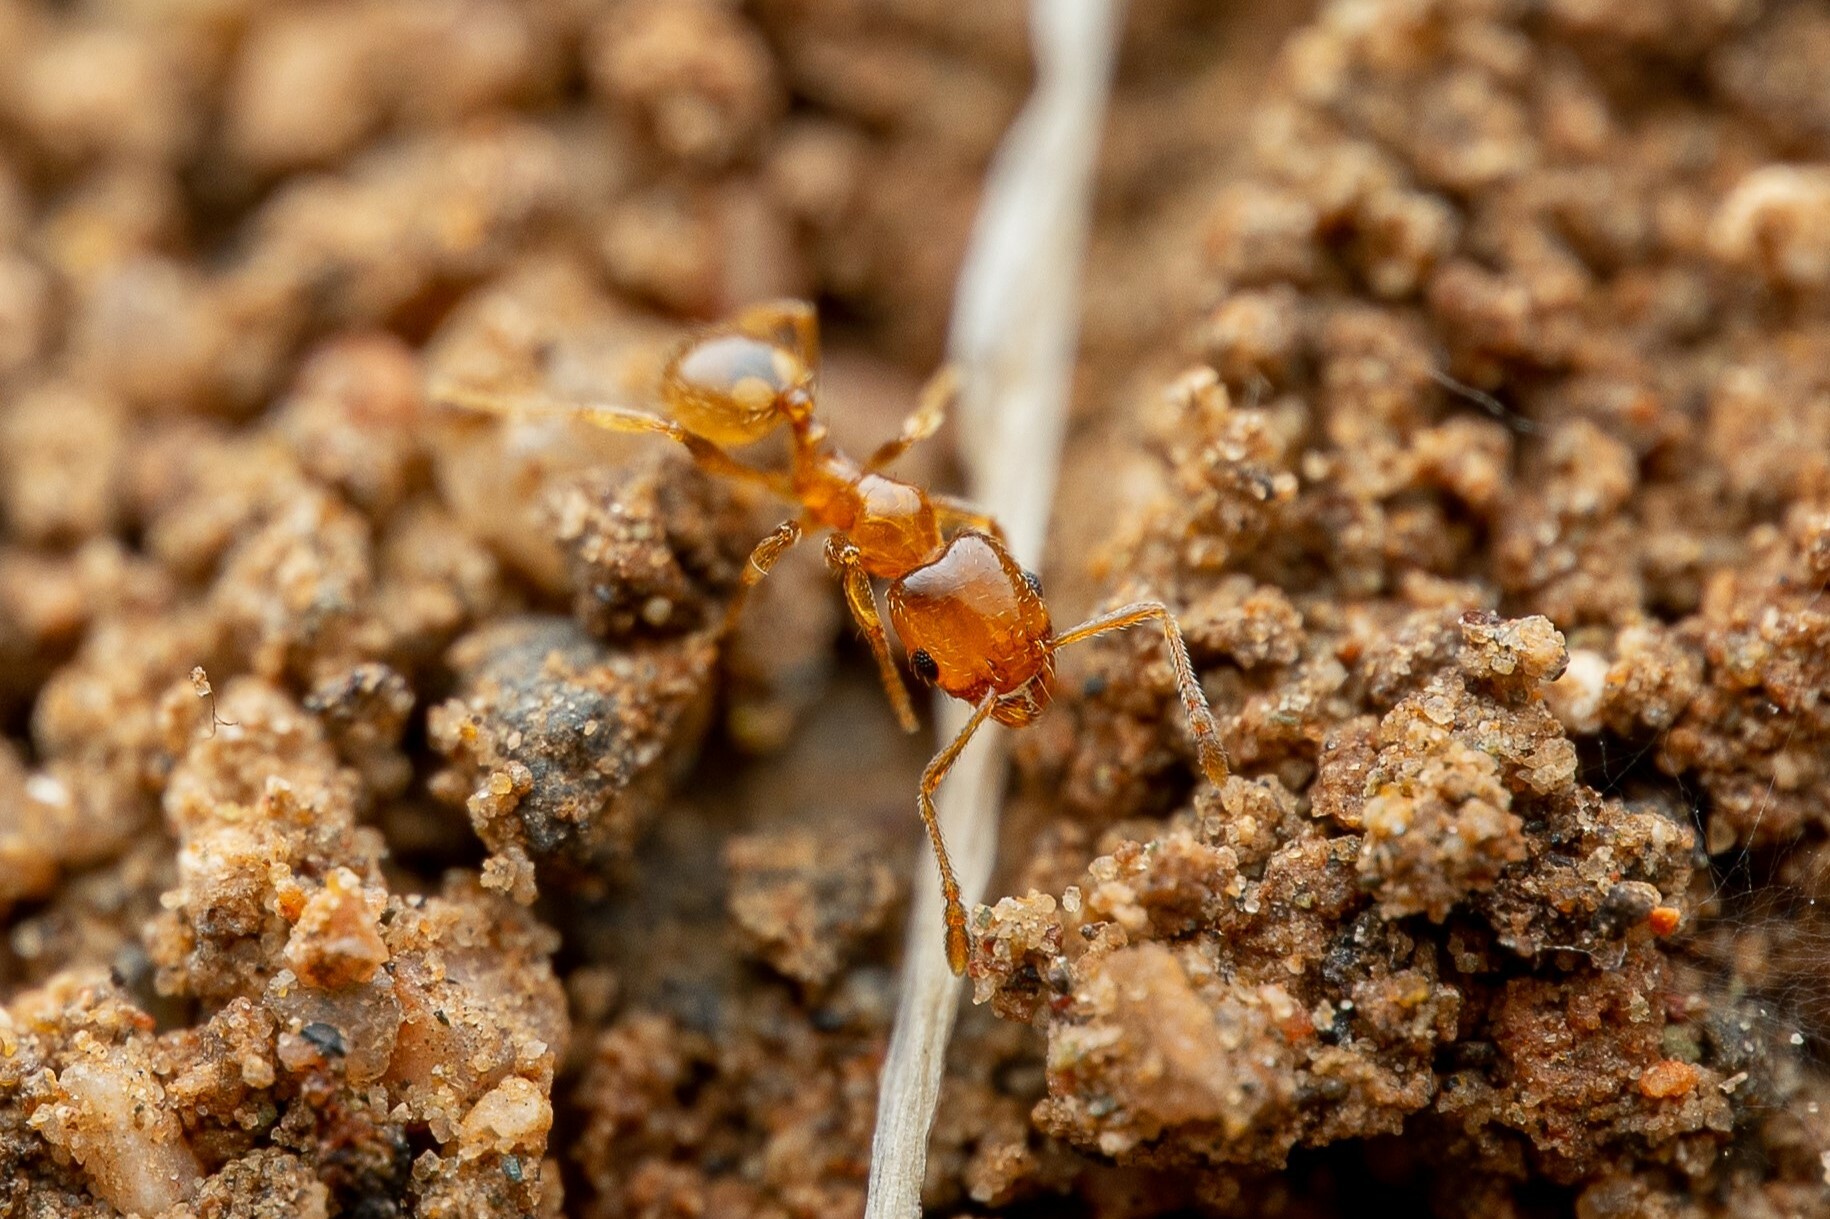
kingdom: Animalia
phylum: Arthropoda
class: Insecta
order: Hymenoptera
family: Formicidae
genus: Pheidole
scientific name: Pheidole
